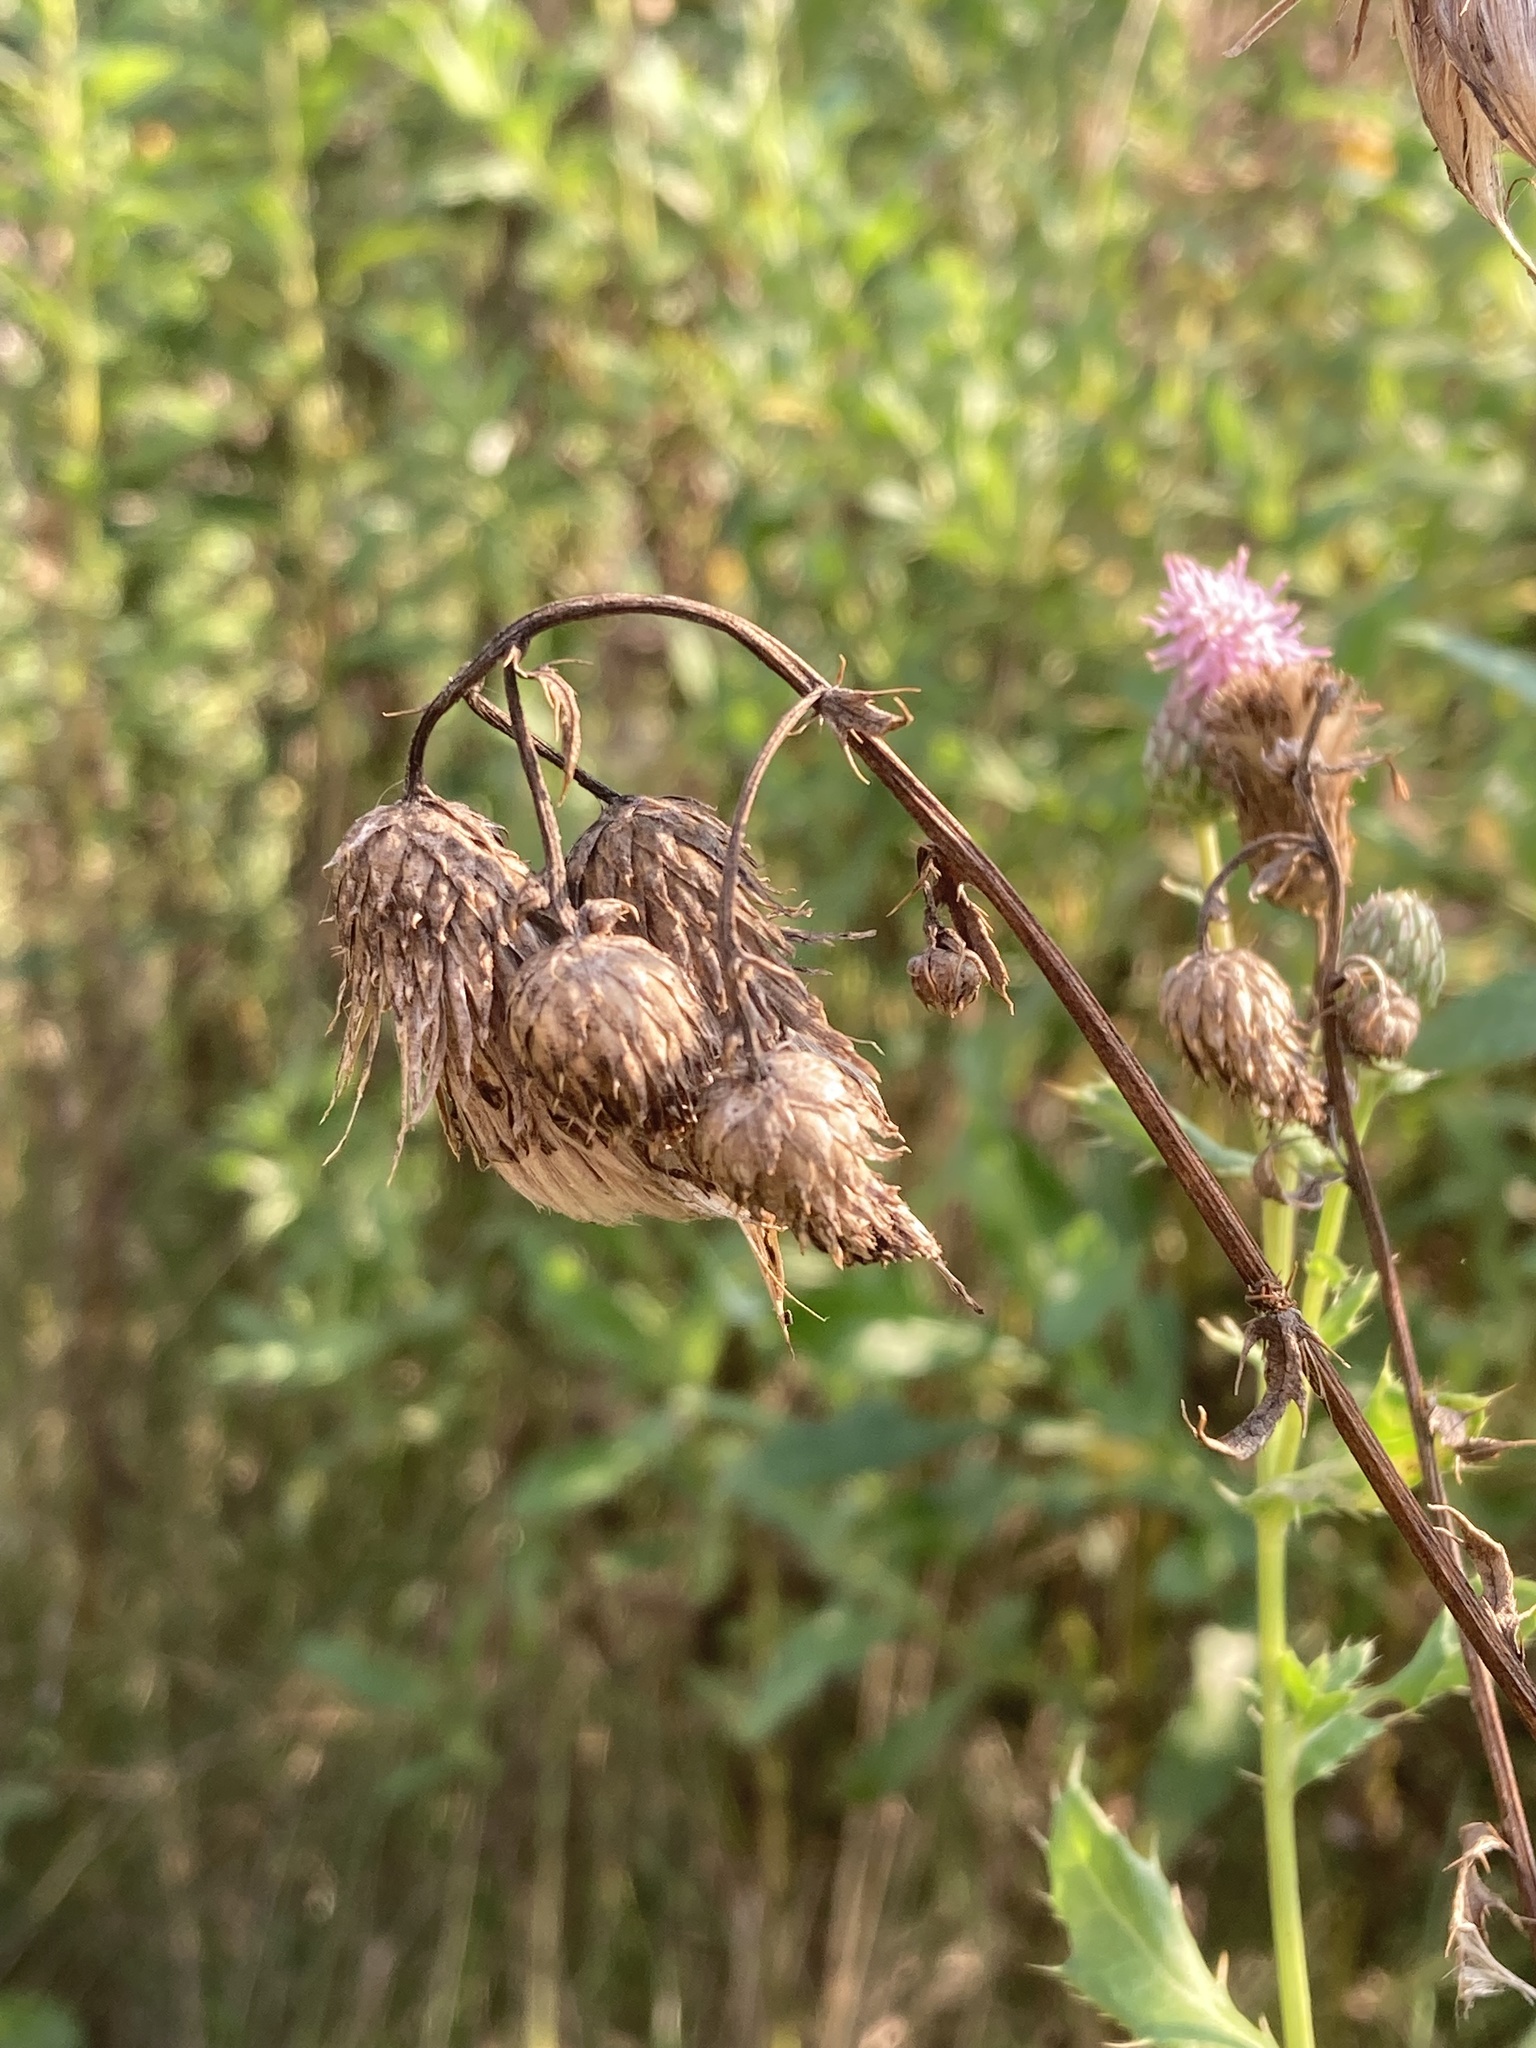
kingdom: Plantae
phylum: Tracheophyta
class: Magnoliopsida
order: Asterales
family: Asteraceae
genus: Cirsium
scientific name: Cirsium arvense
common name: Creeping thistle
